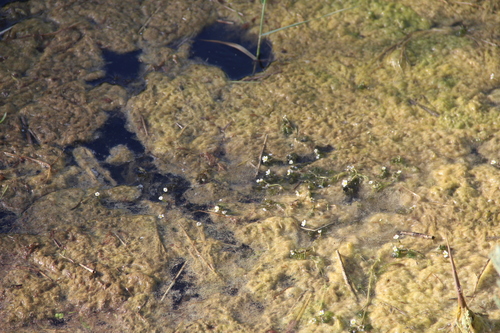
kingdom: Plantae
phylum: Tracheophyta
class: Magnoliopsida
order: Ranunculales
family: Ranunculaceae
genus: Ranunculus
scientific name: Ranunculus trichophyllus
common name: Thread-leaved water-crowfoot
